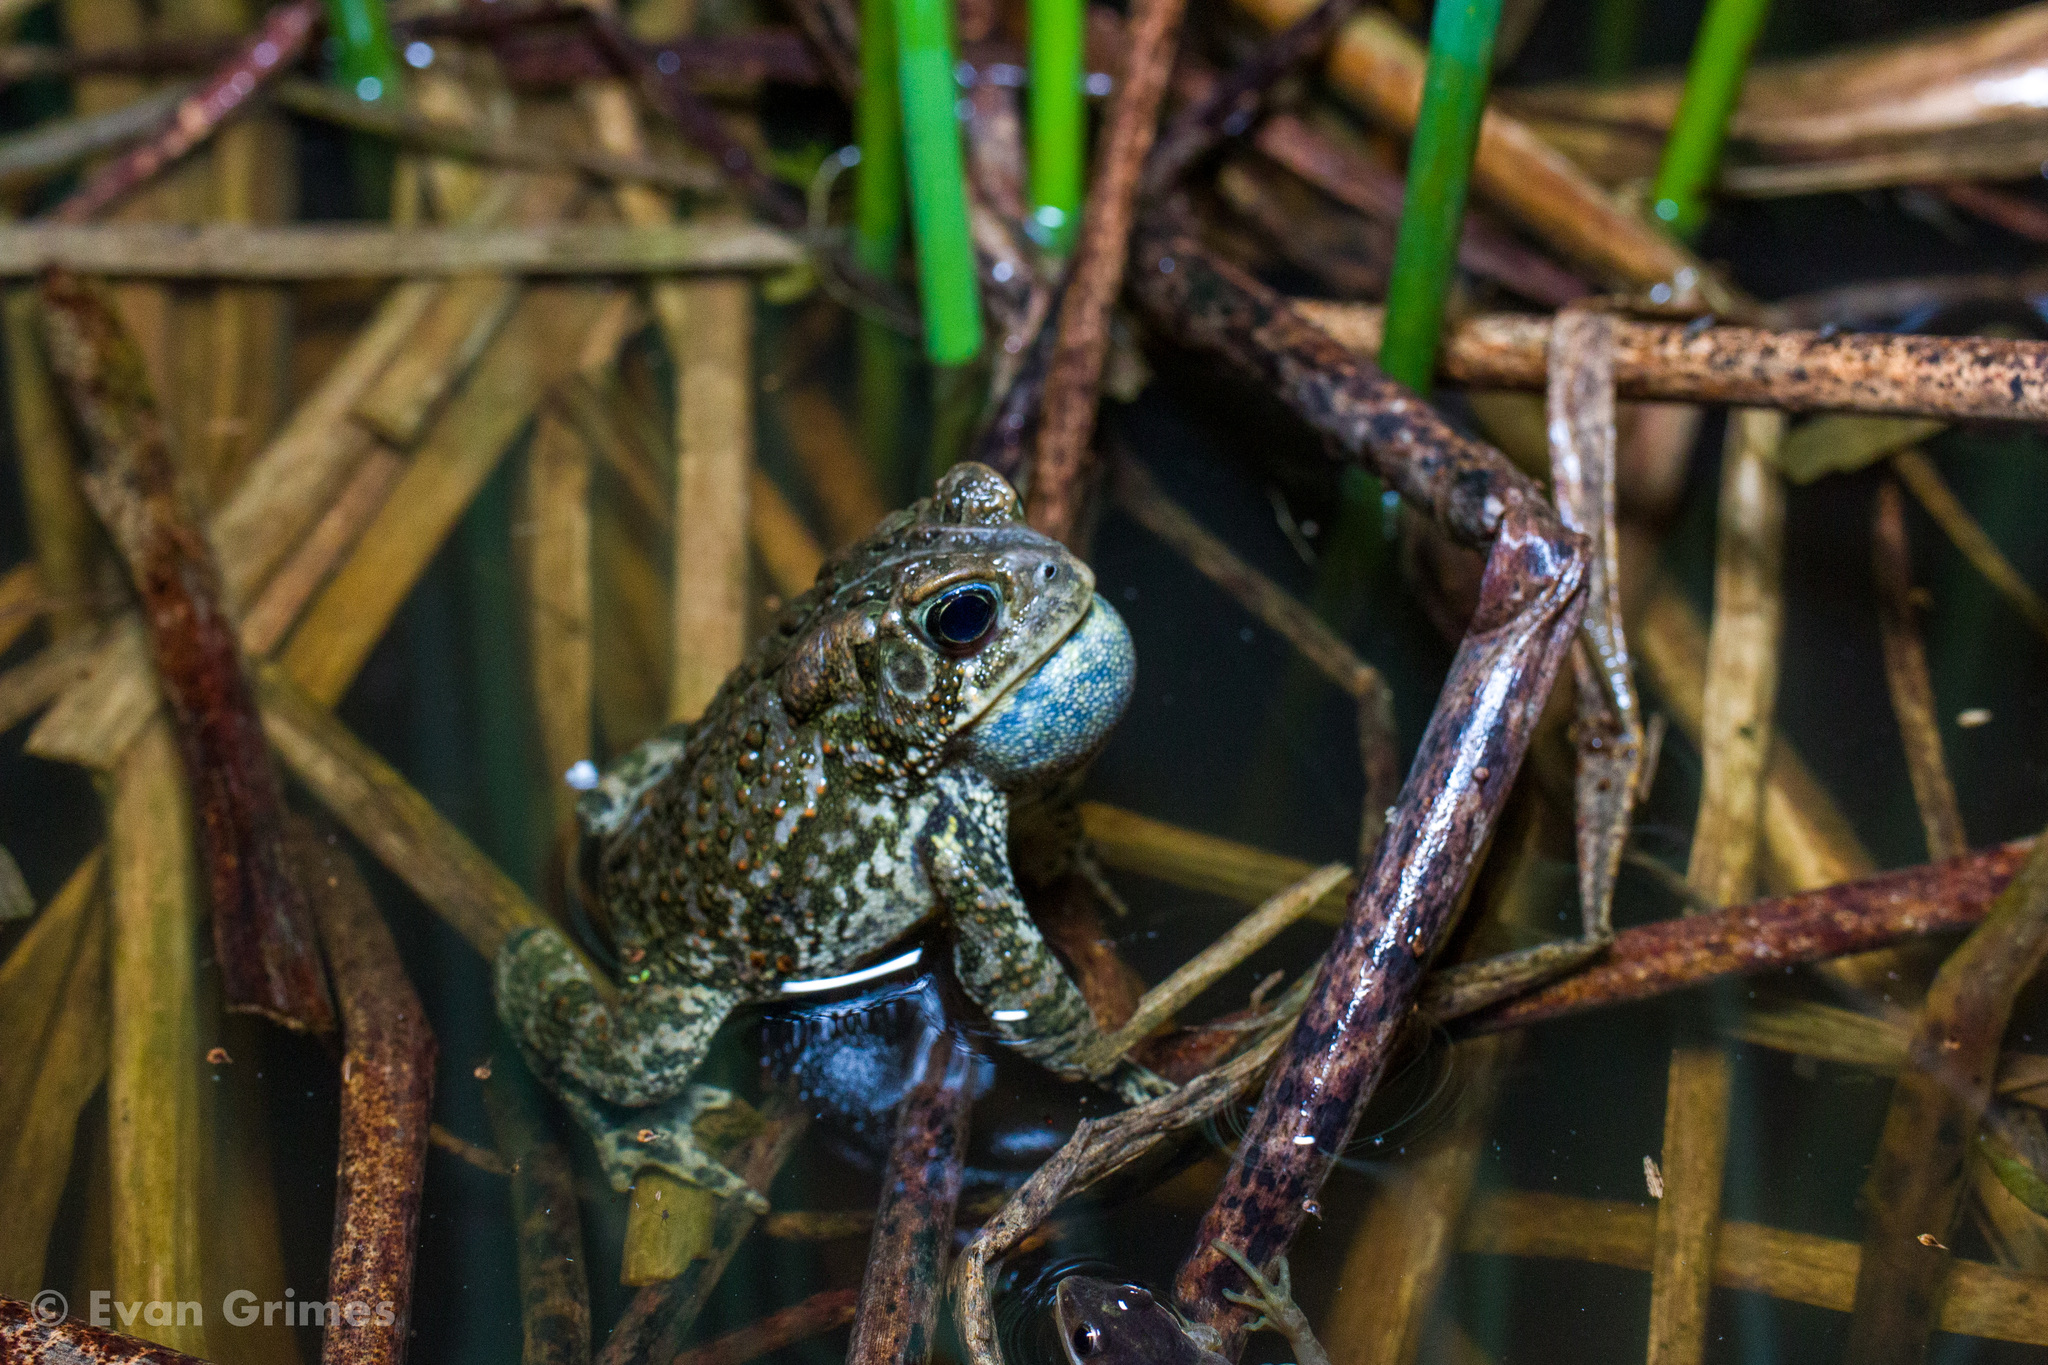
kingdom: Animalia
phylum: Chordata
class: Amphibia
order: Anura
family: Bufonidae
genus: Anaxyrus
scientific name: Anaxyrus americanus
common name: American toad
